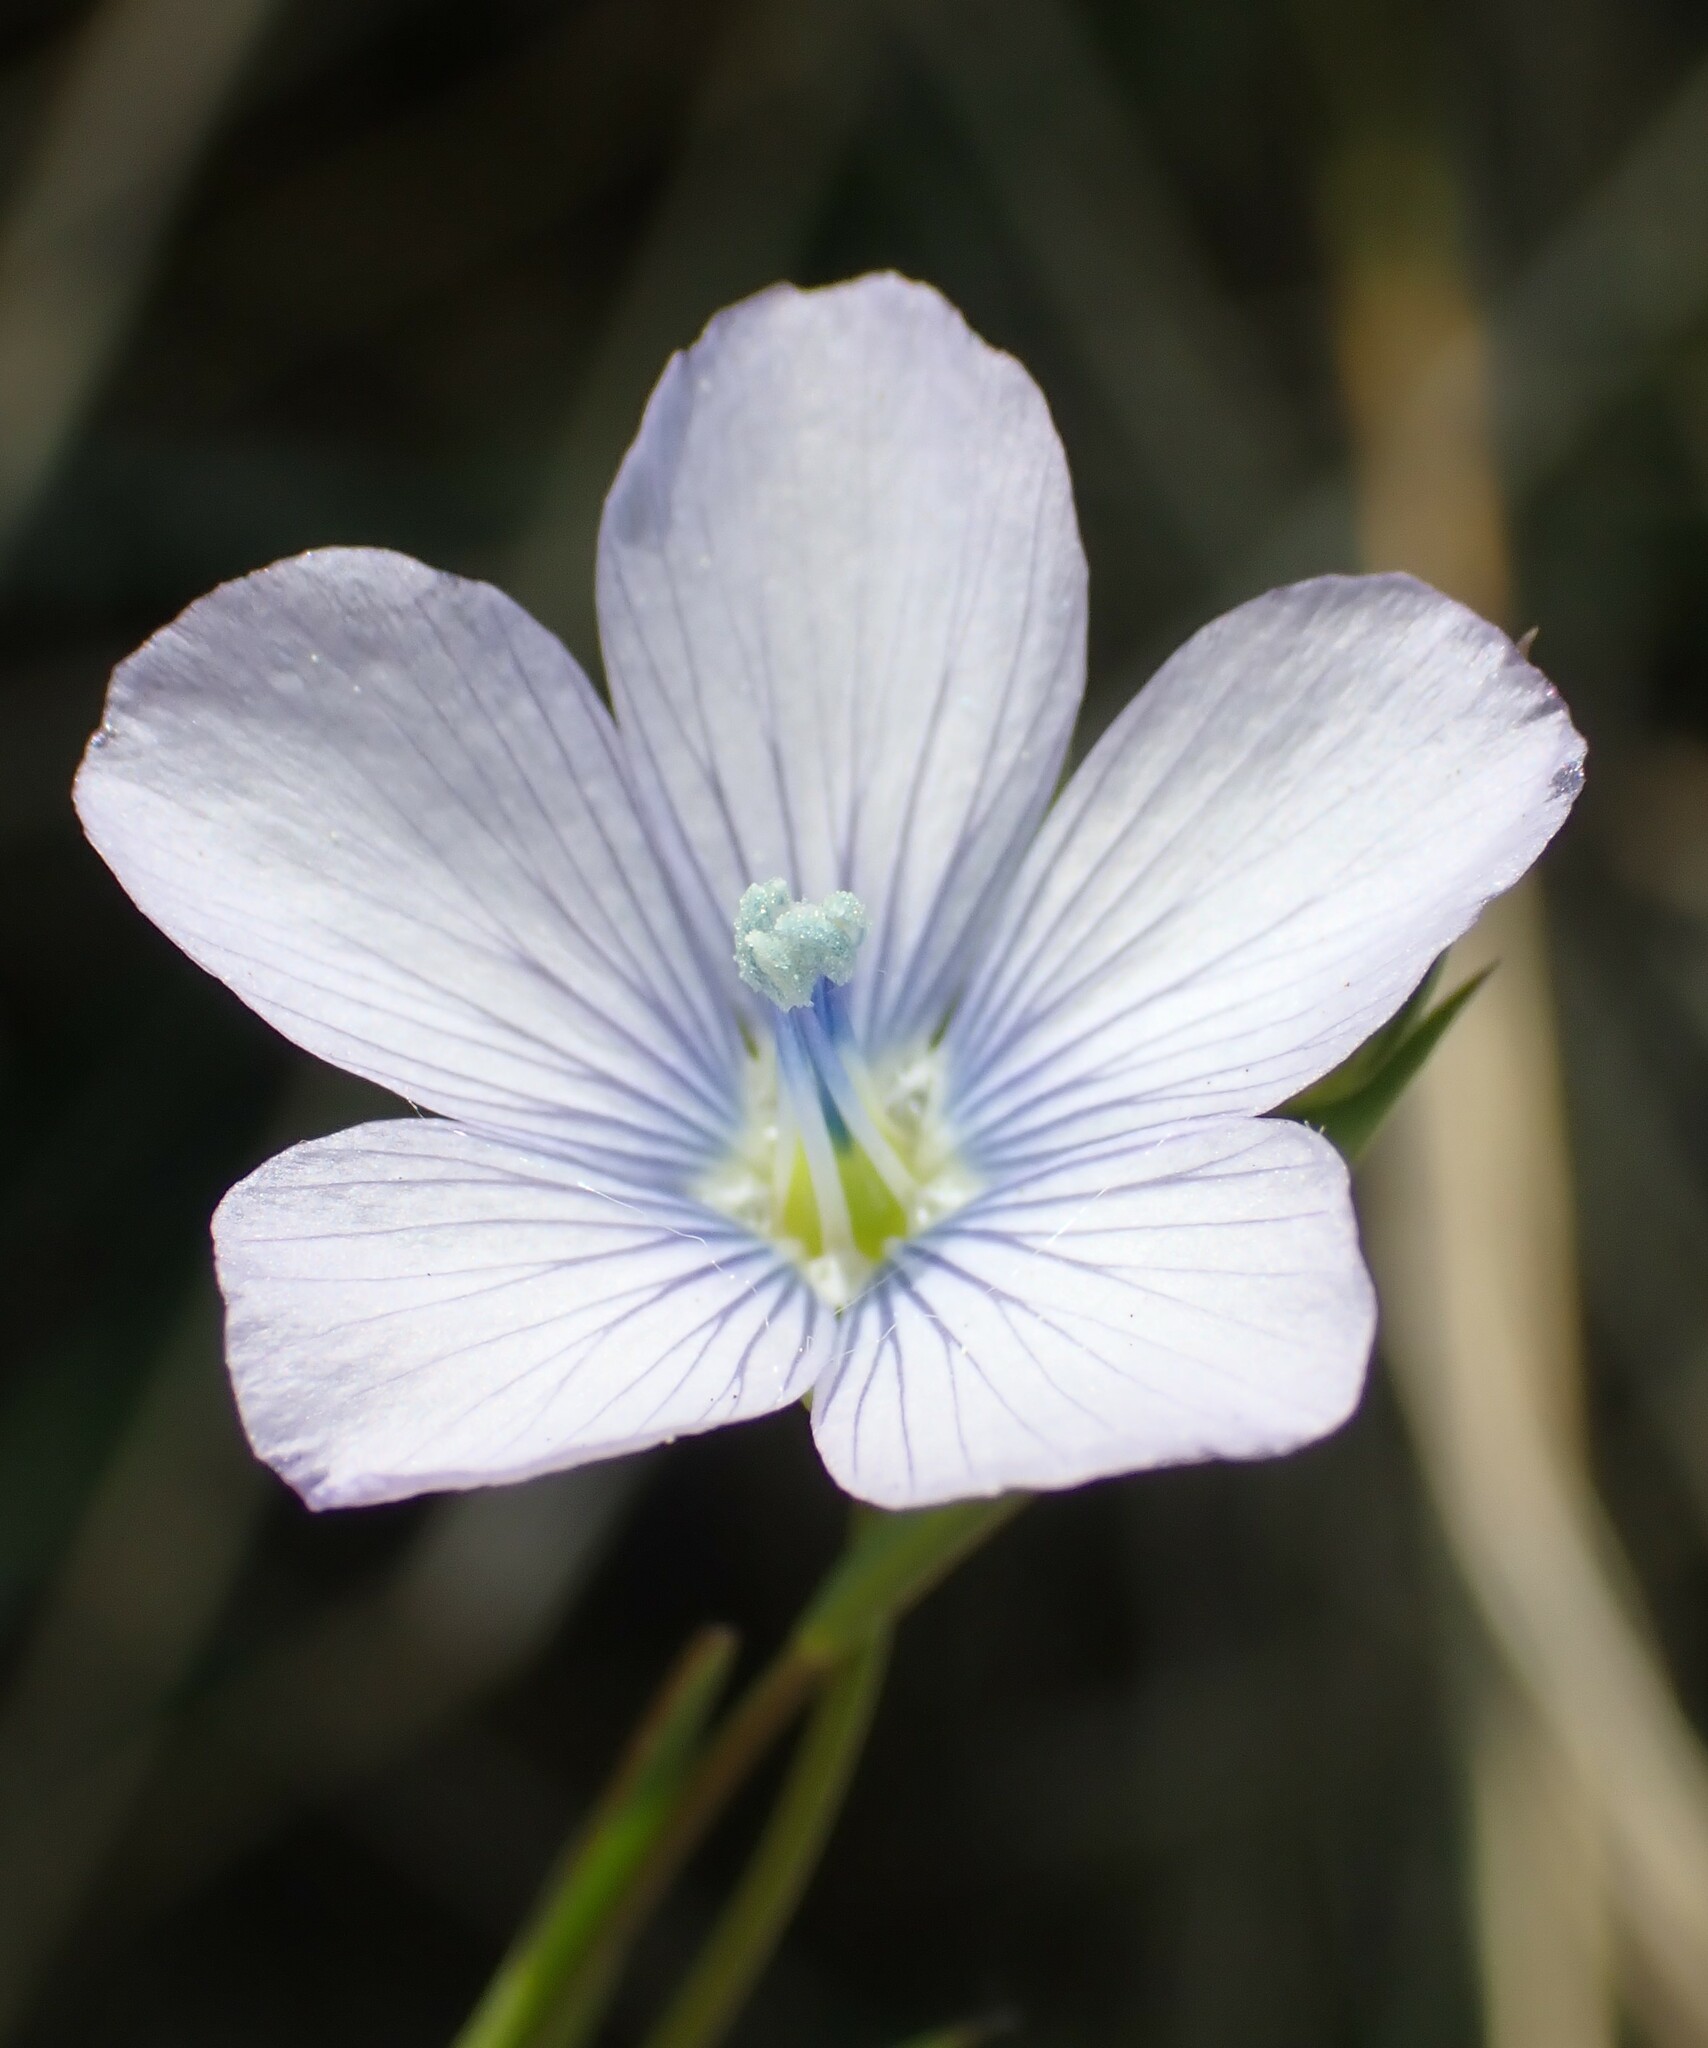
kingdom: Plantae
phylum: Tracheophyta
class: Magnoliopsida
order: Malpighiales
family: Linaceae
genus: Linum
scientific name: Linum bienne
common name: Pale flax
